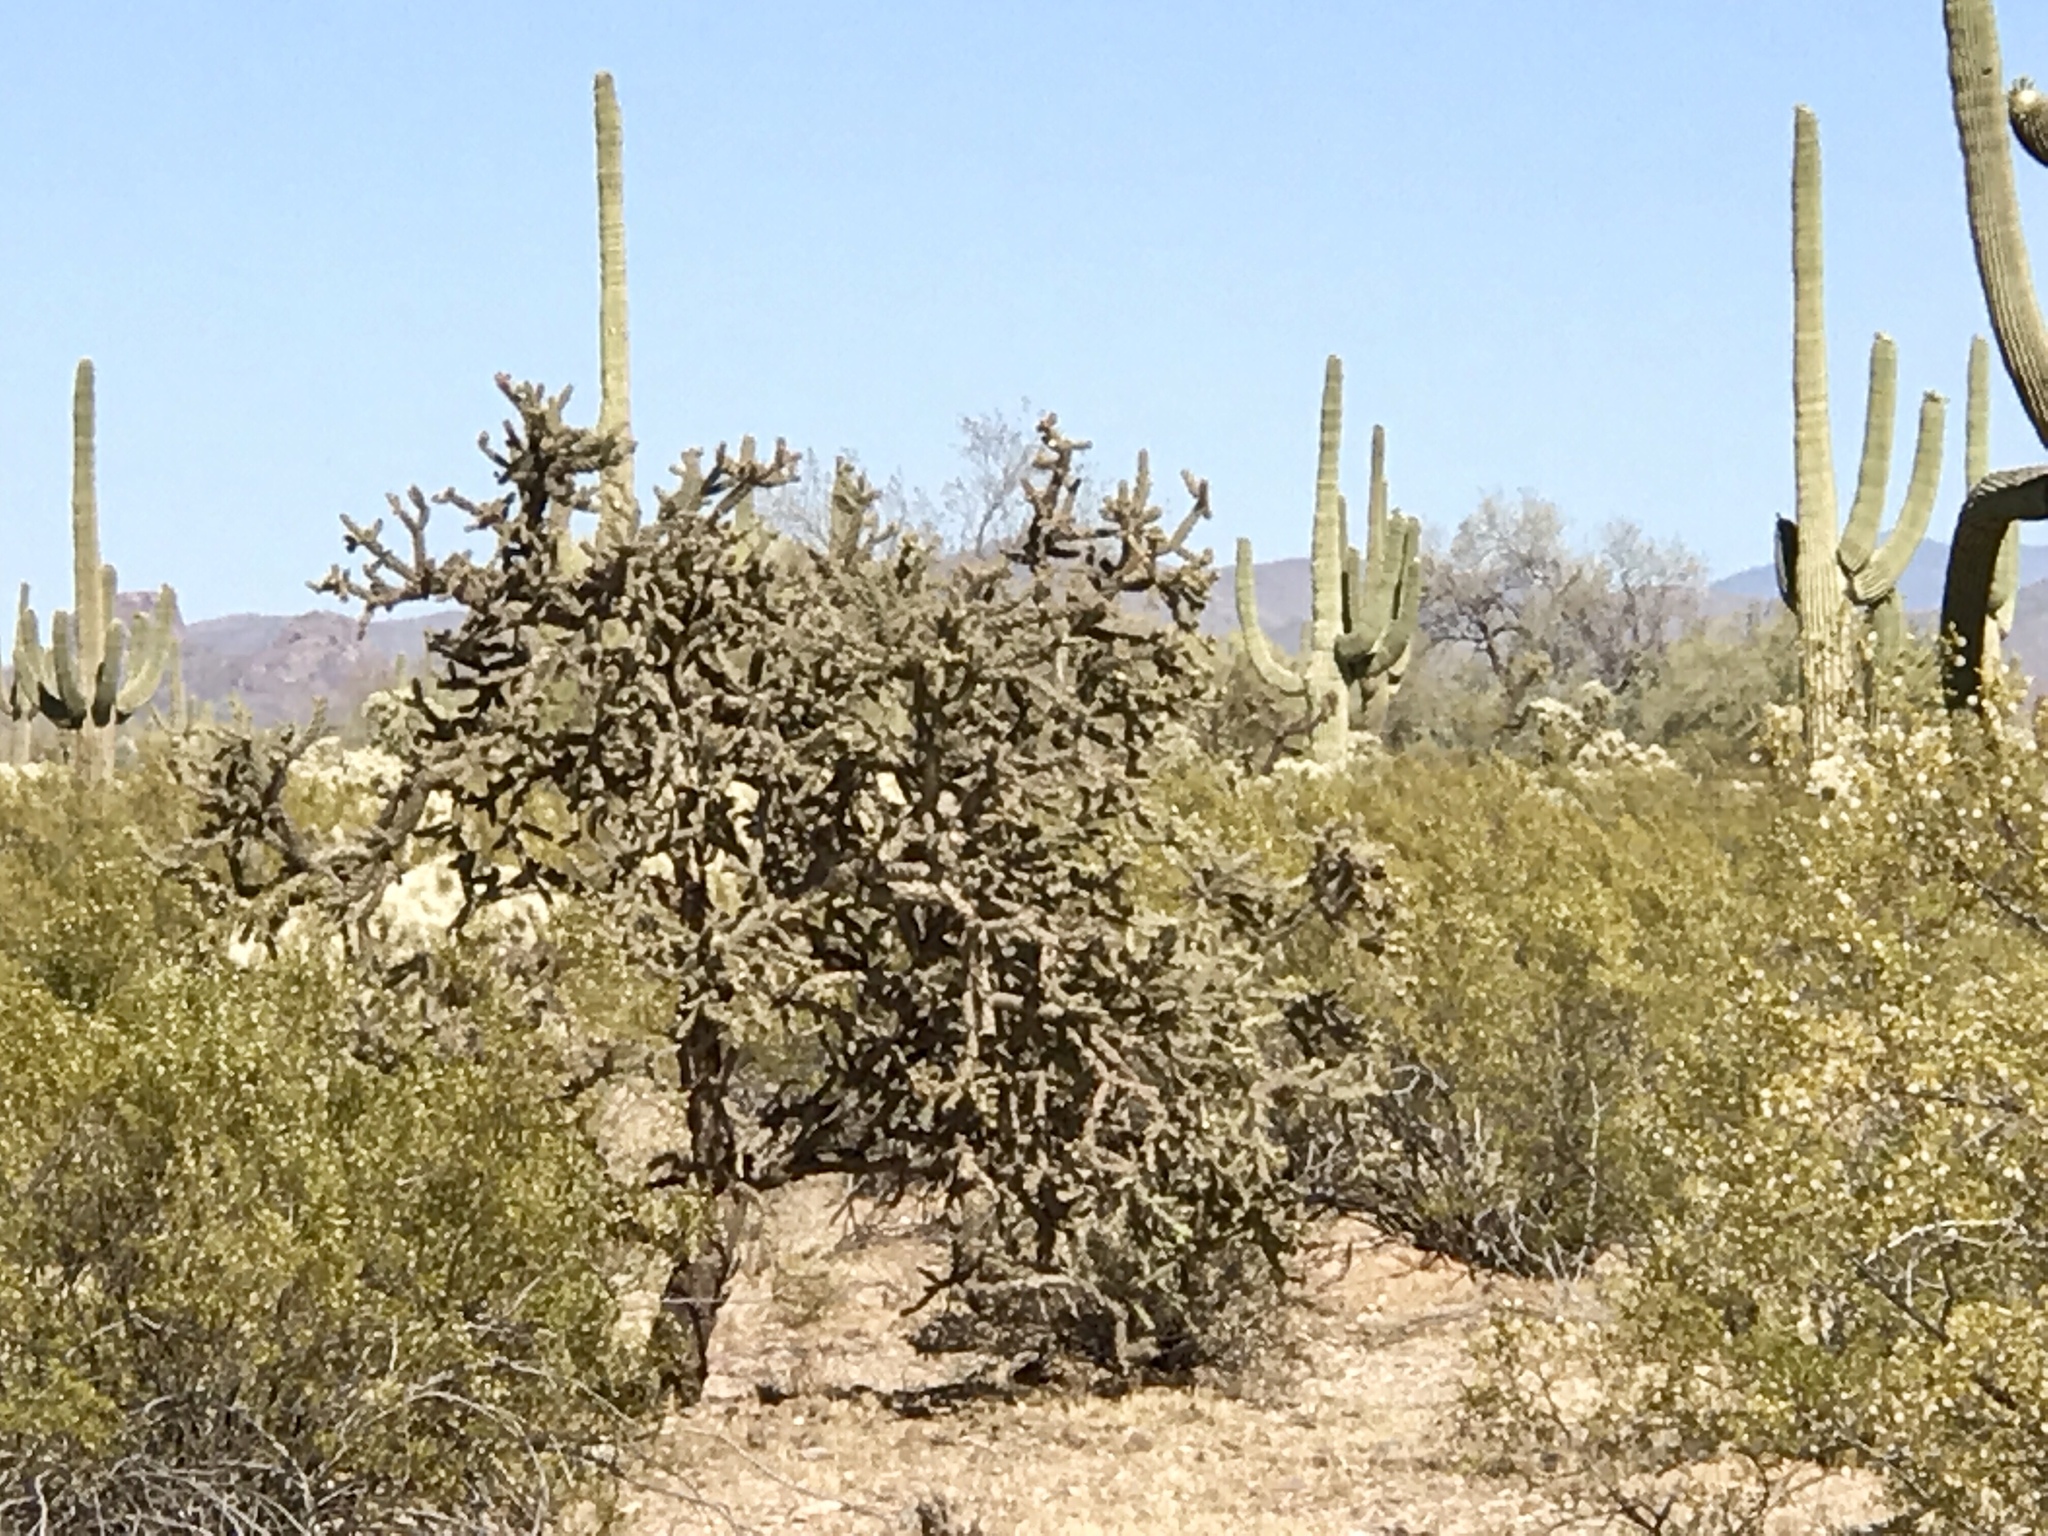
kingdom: Plantae
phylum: Tracheophyta
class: Magnoliopsida
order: Caryophyllales
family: Cactaceae
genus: Cylindropuntia
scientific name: Cylindropuntia acanthocarpa
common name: Buckhorn cholla
